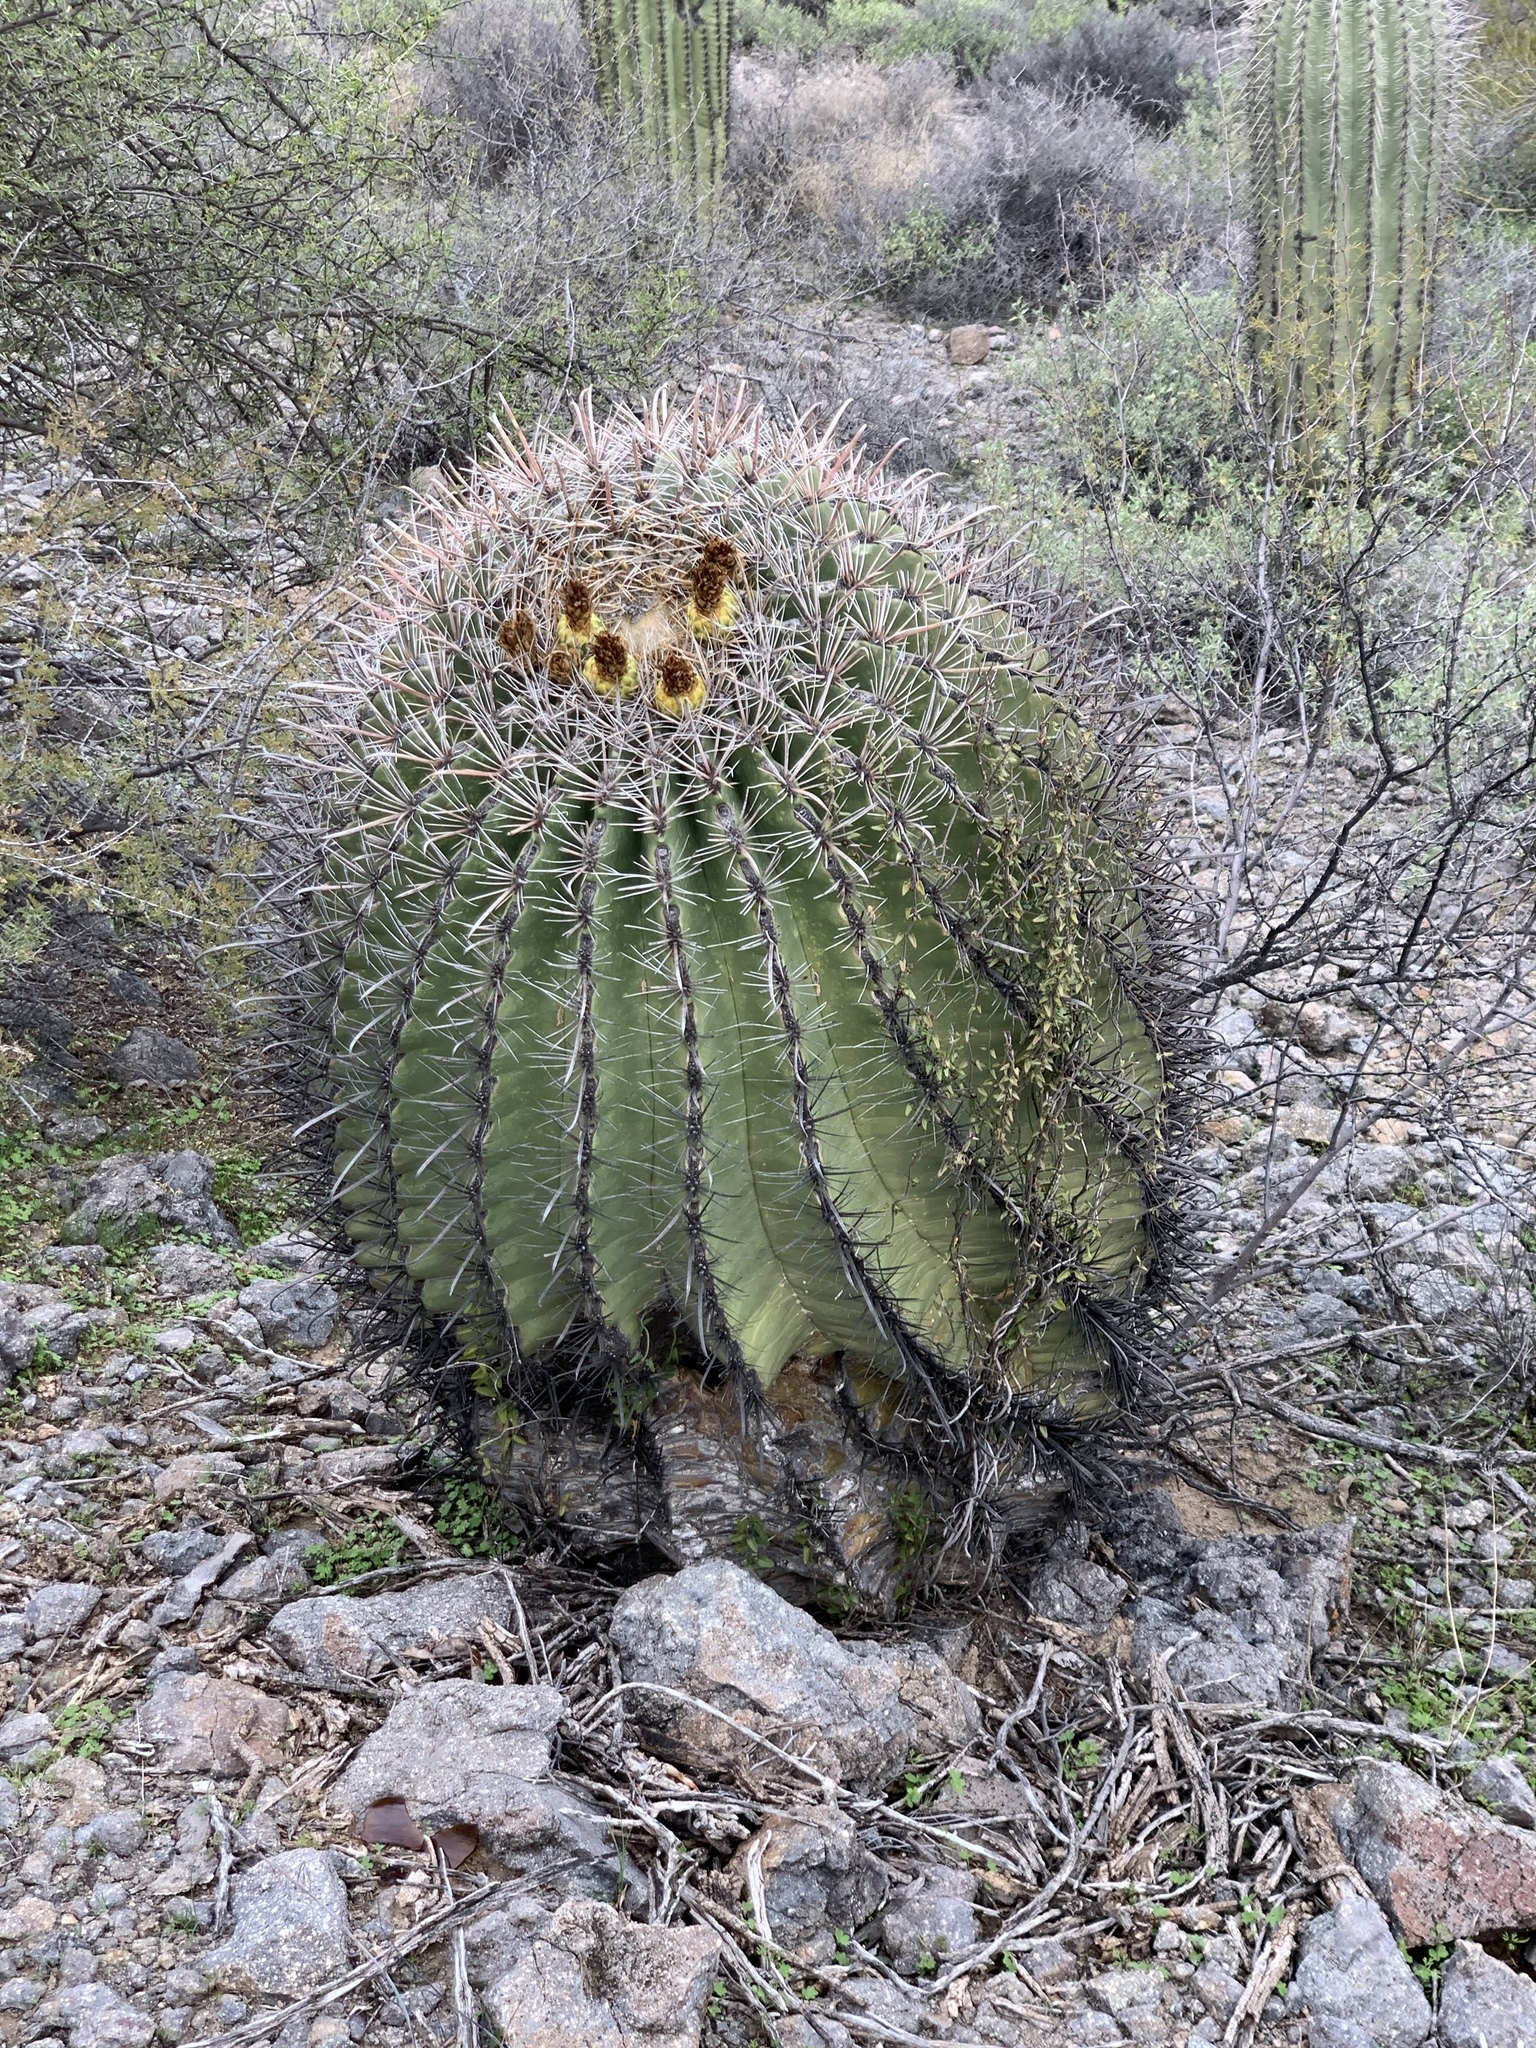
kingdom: Plantae
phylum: Tracheophyta
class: Magnoliopsida
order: Caryophyllales
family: Cactaceae
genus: Ferocactus
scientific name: Ferocactus wislizeni
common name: Candy barrel cactus
